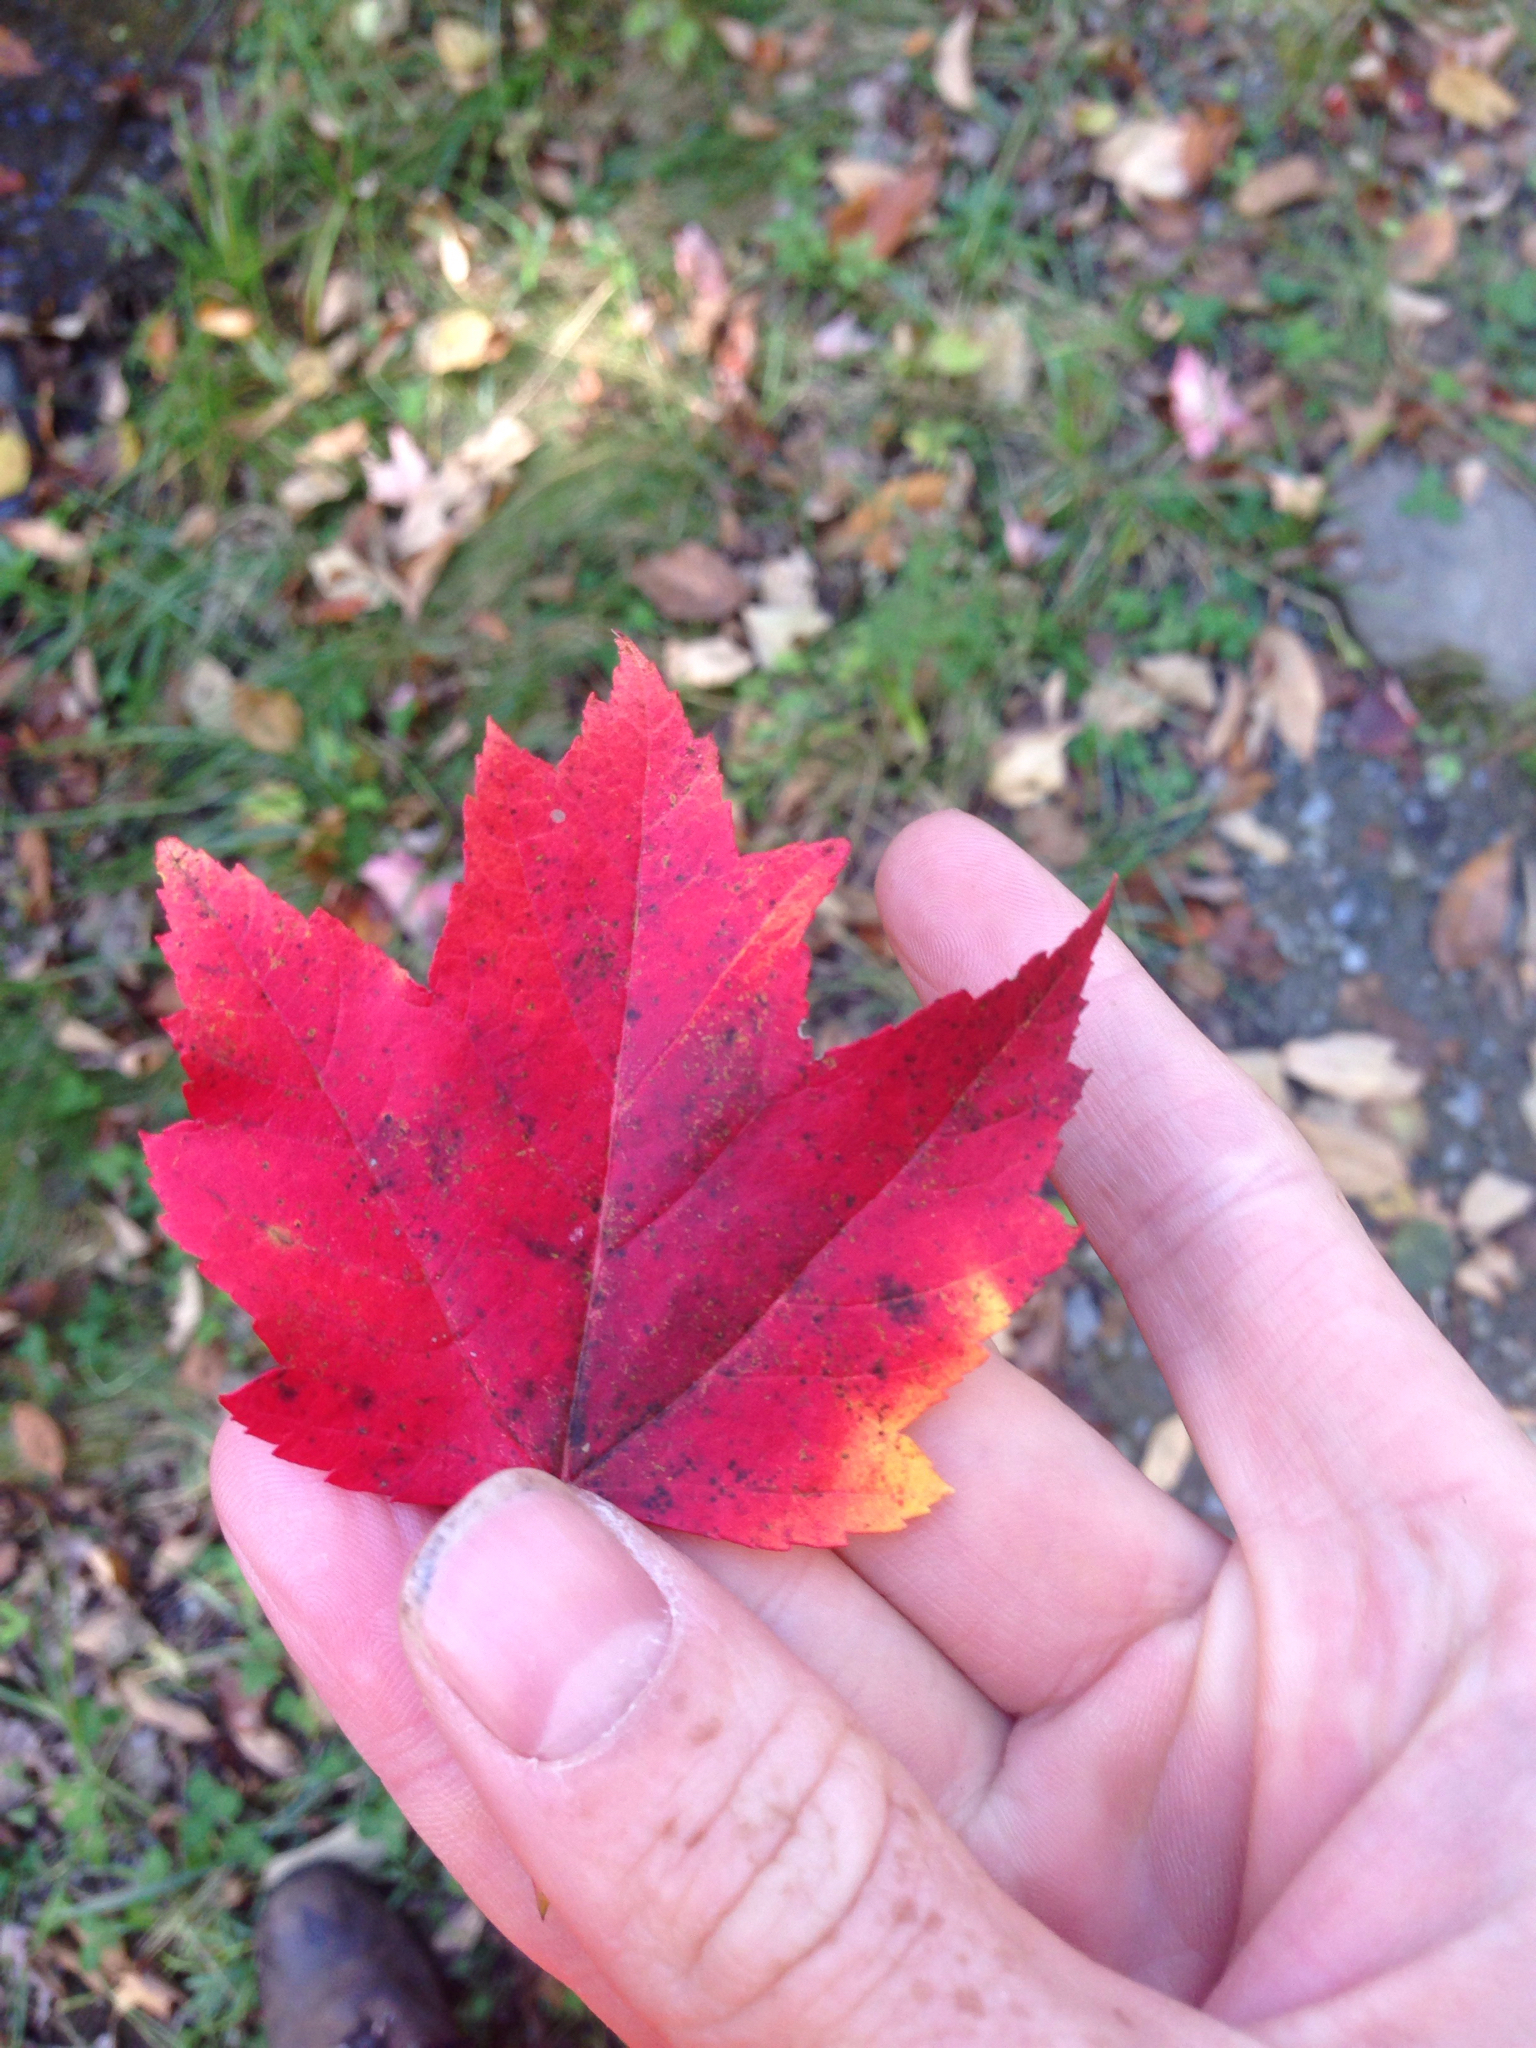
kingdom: Plantae
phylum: Tracheophyta
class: Magnoliopsida
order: Sapindales
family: Sapindaceae
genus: Acer
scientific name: Acer rubrum
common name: Red maple
